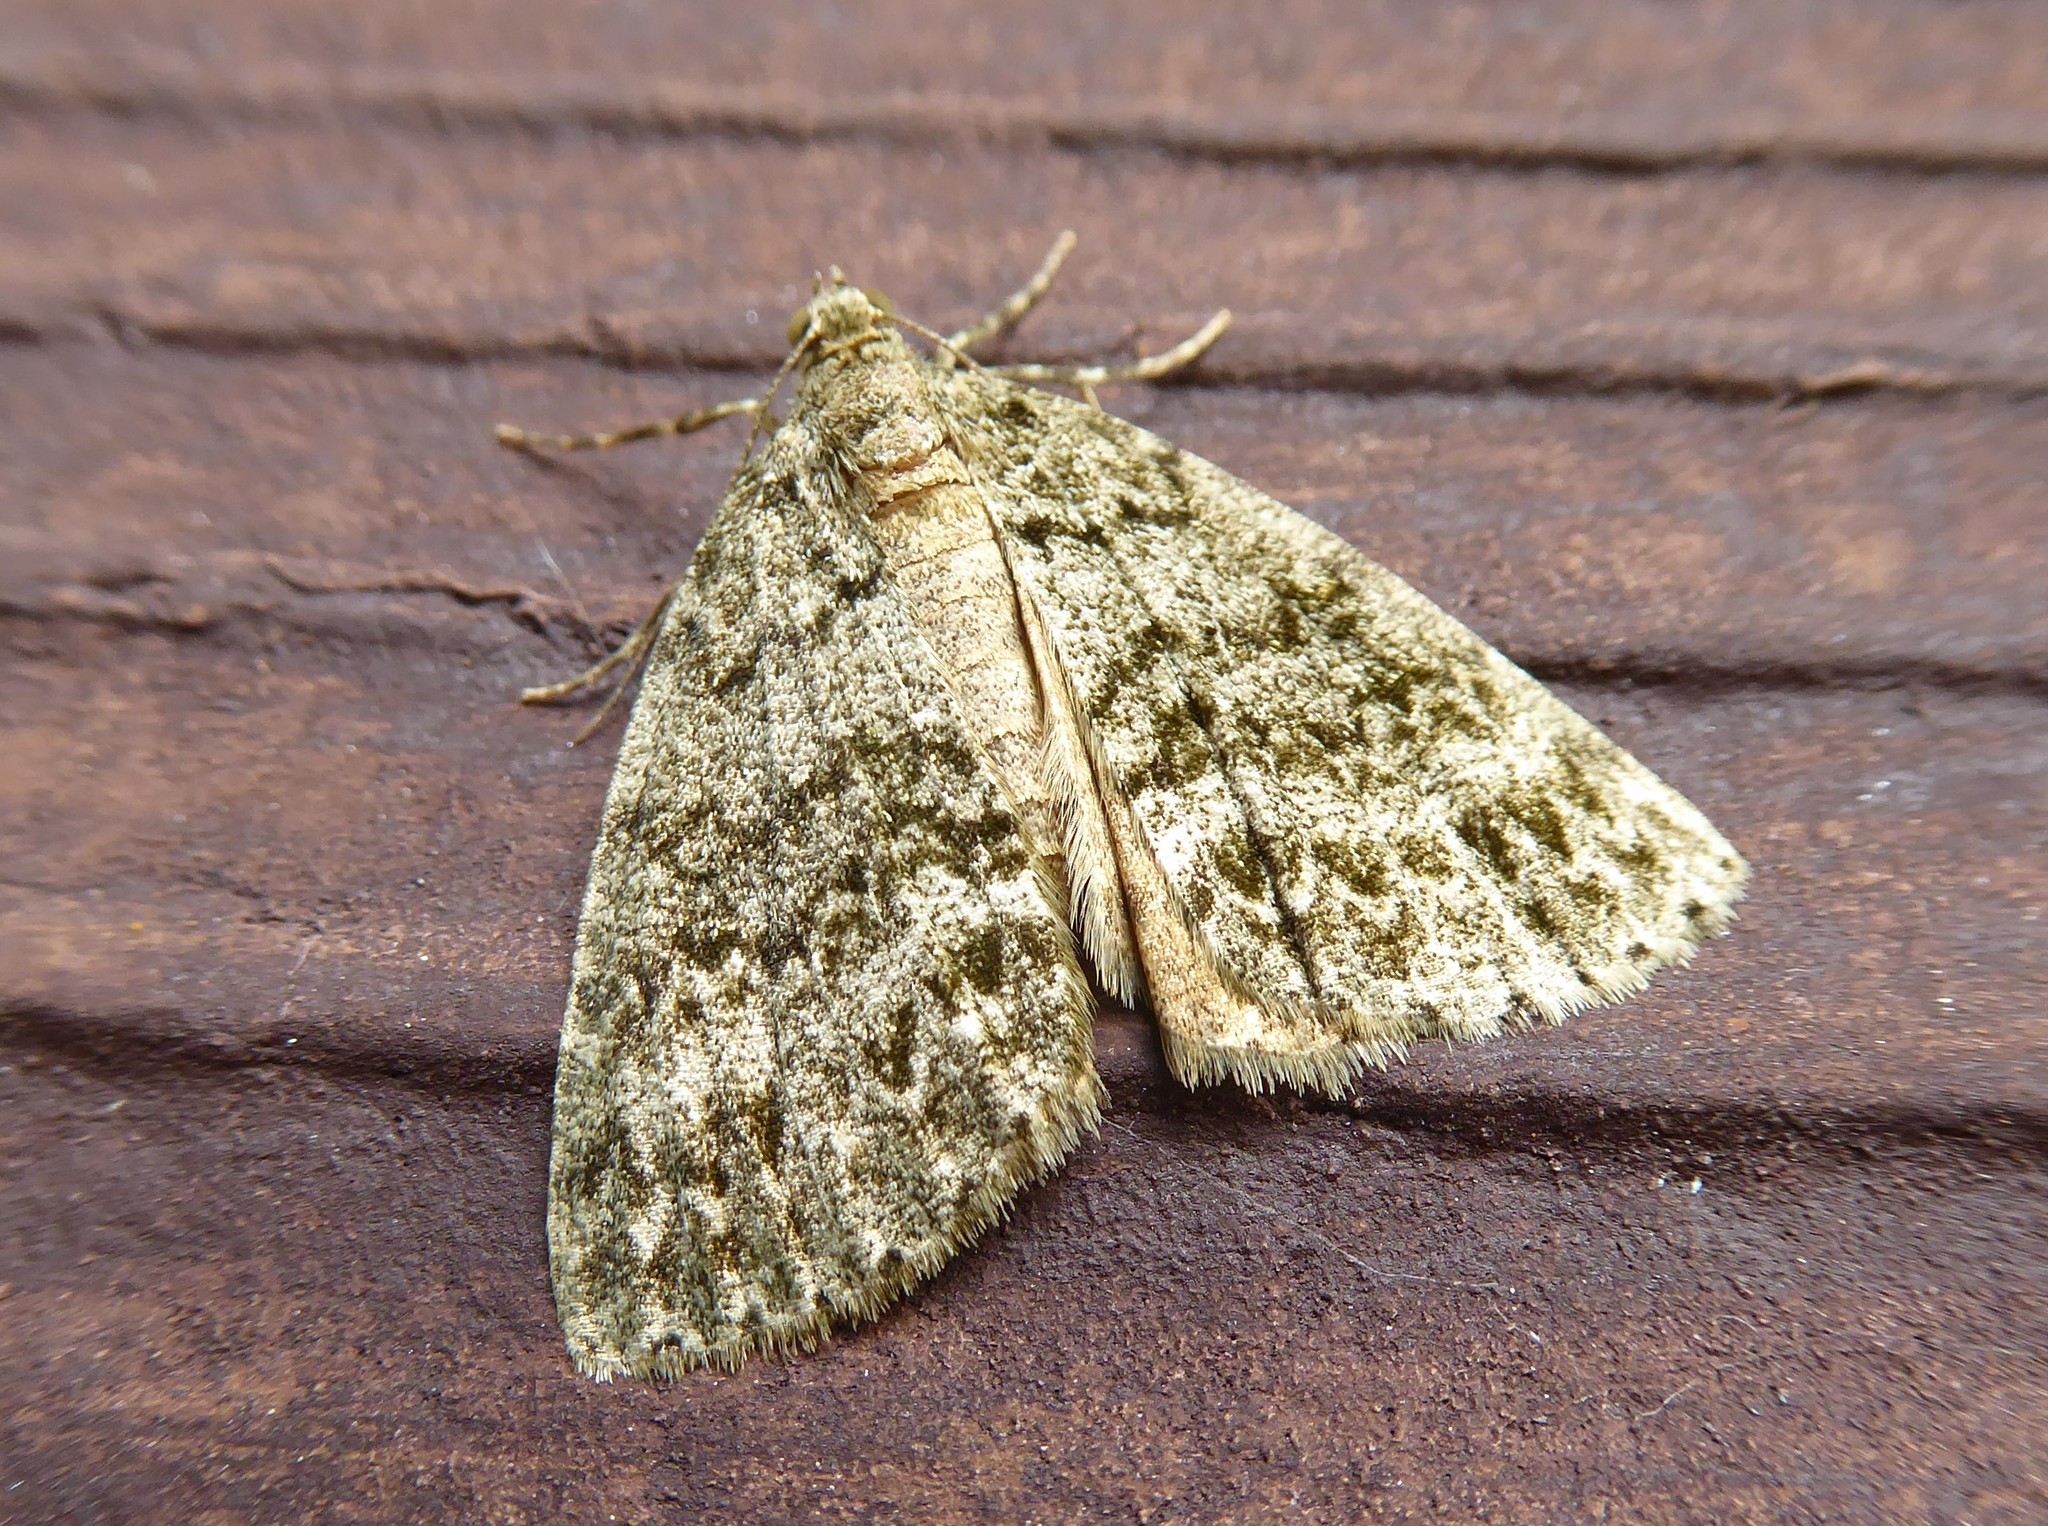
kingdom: Animalia
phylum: Arthropoda
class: Insecta
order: Lepidoptera
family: Geometridae
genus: Pseudocoremia
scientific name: Pseudocoremia indistincta
